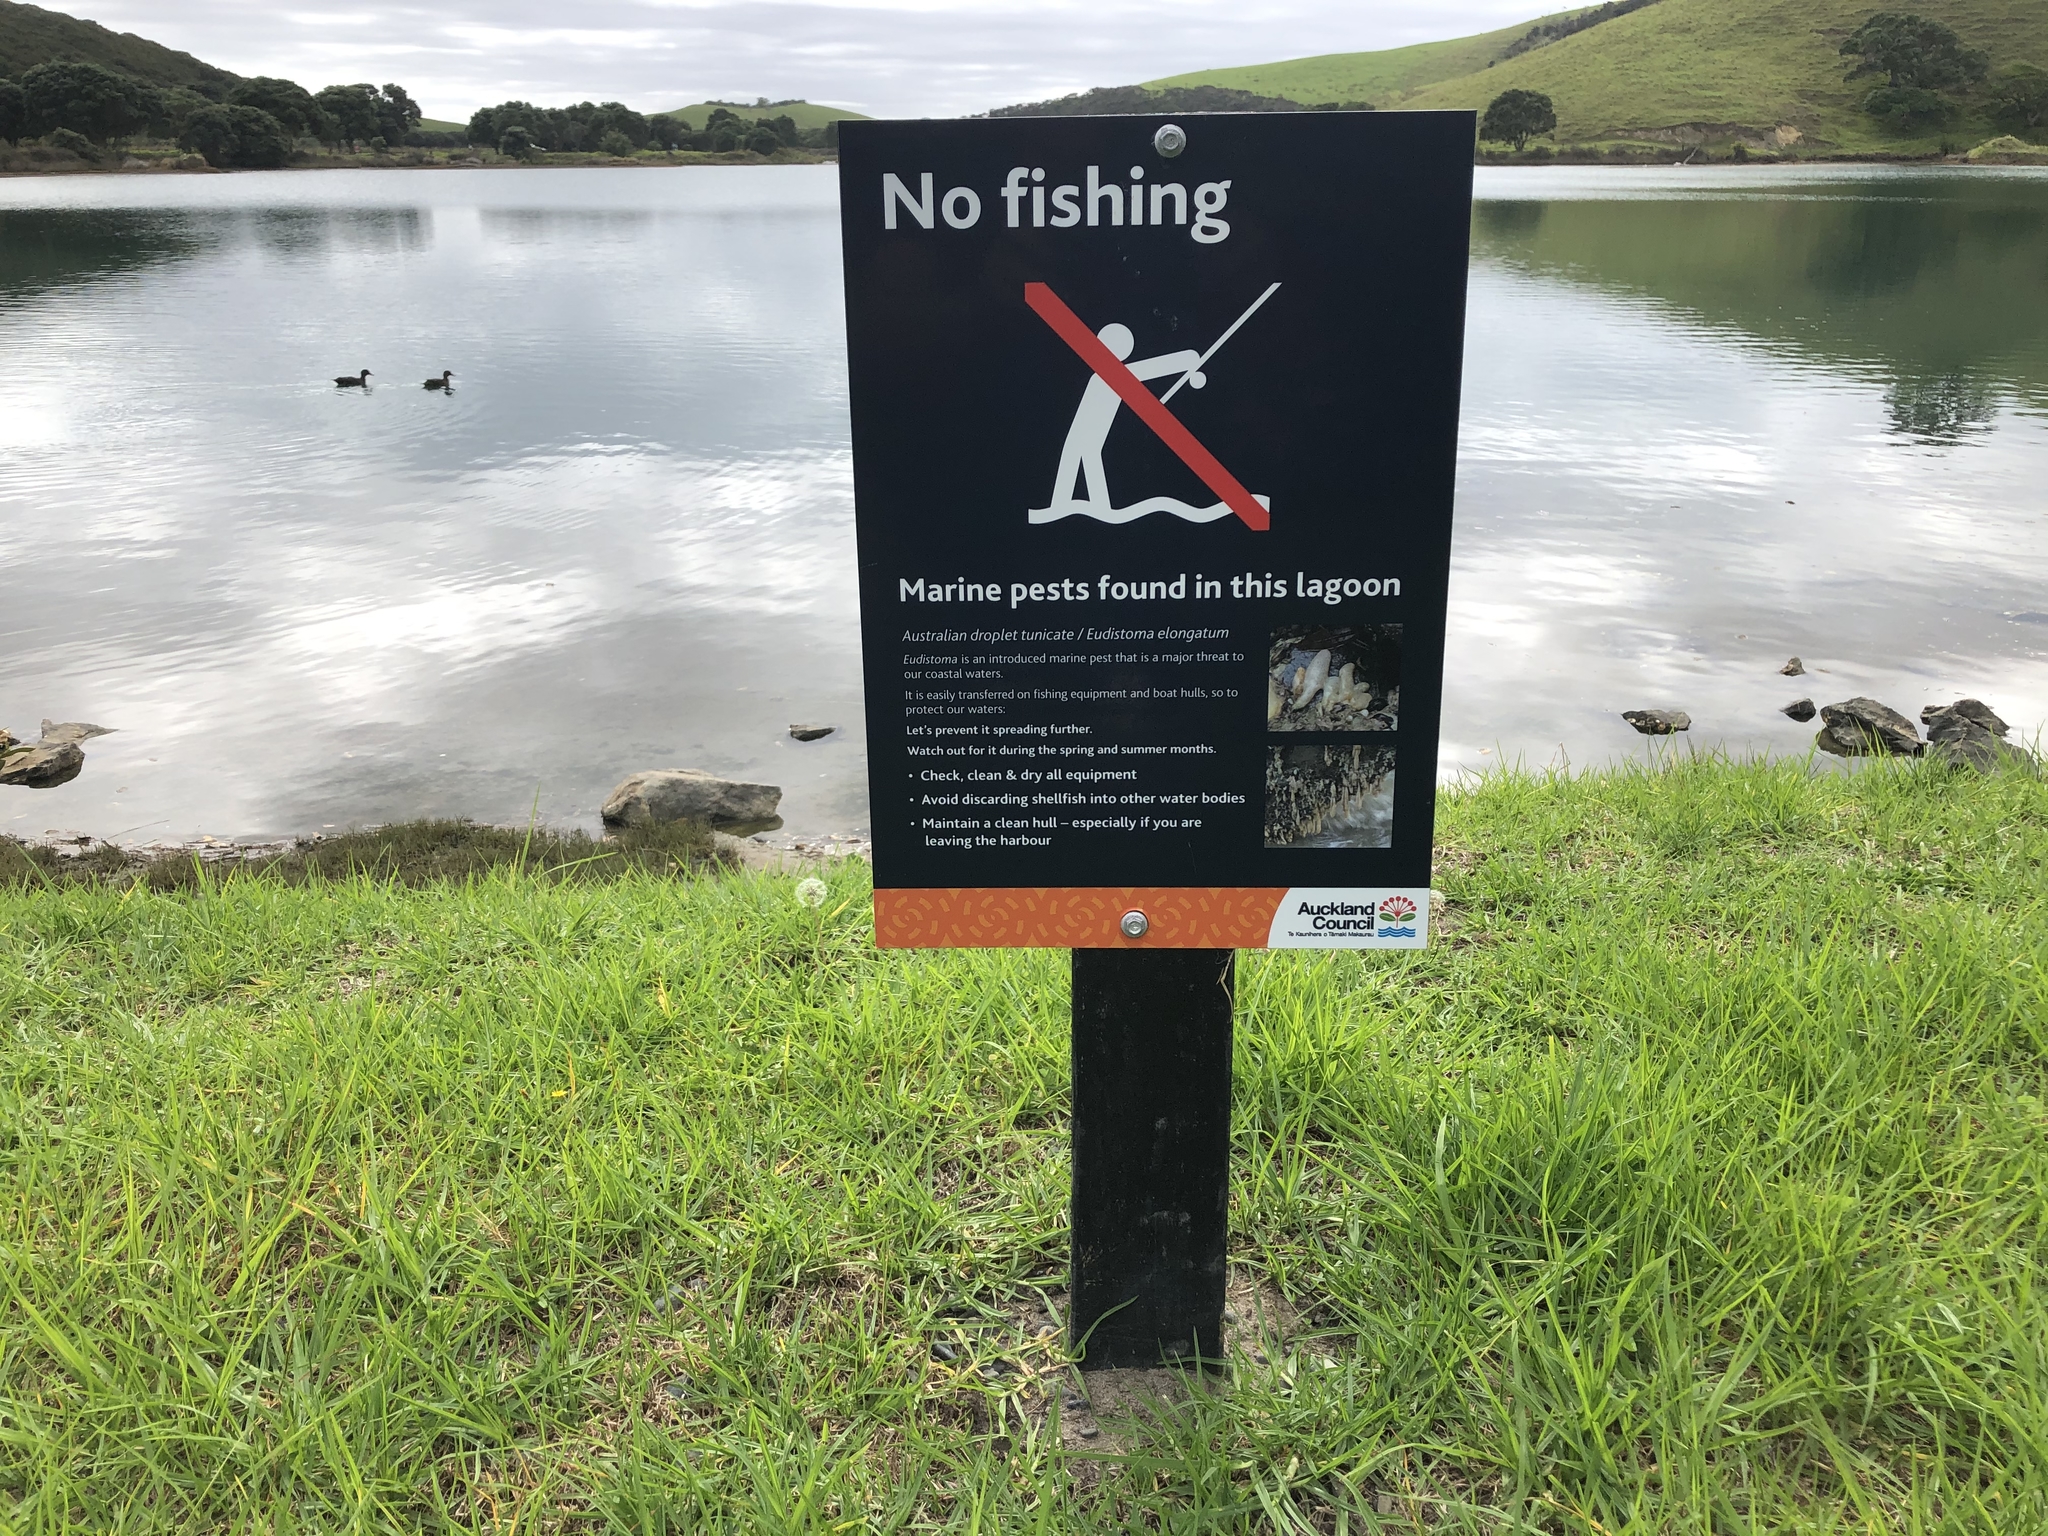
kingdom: Animalia
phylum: Chordata
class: Ascidiacea
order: Aplousobranchia
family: Polycitoridae
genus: Eudistoma
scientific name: Eudistoma elongatum
